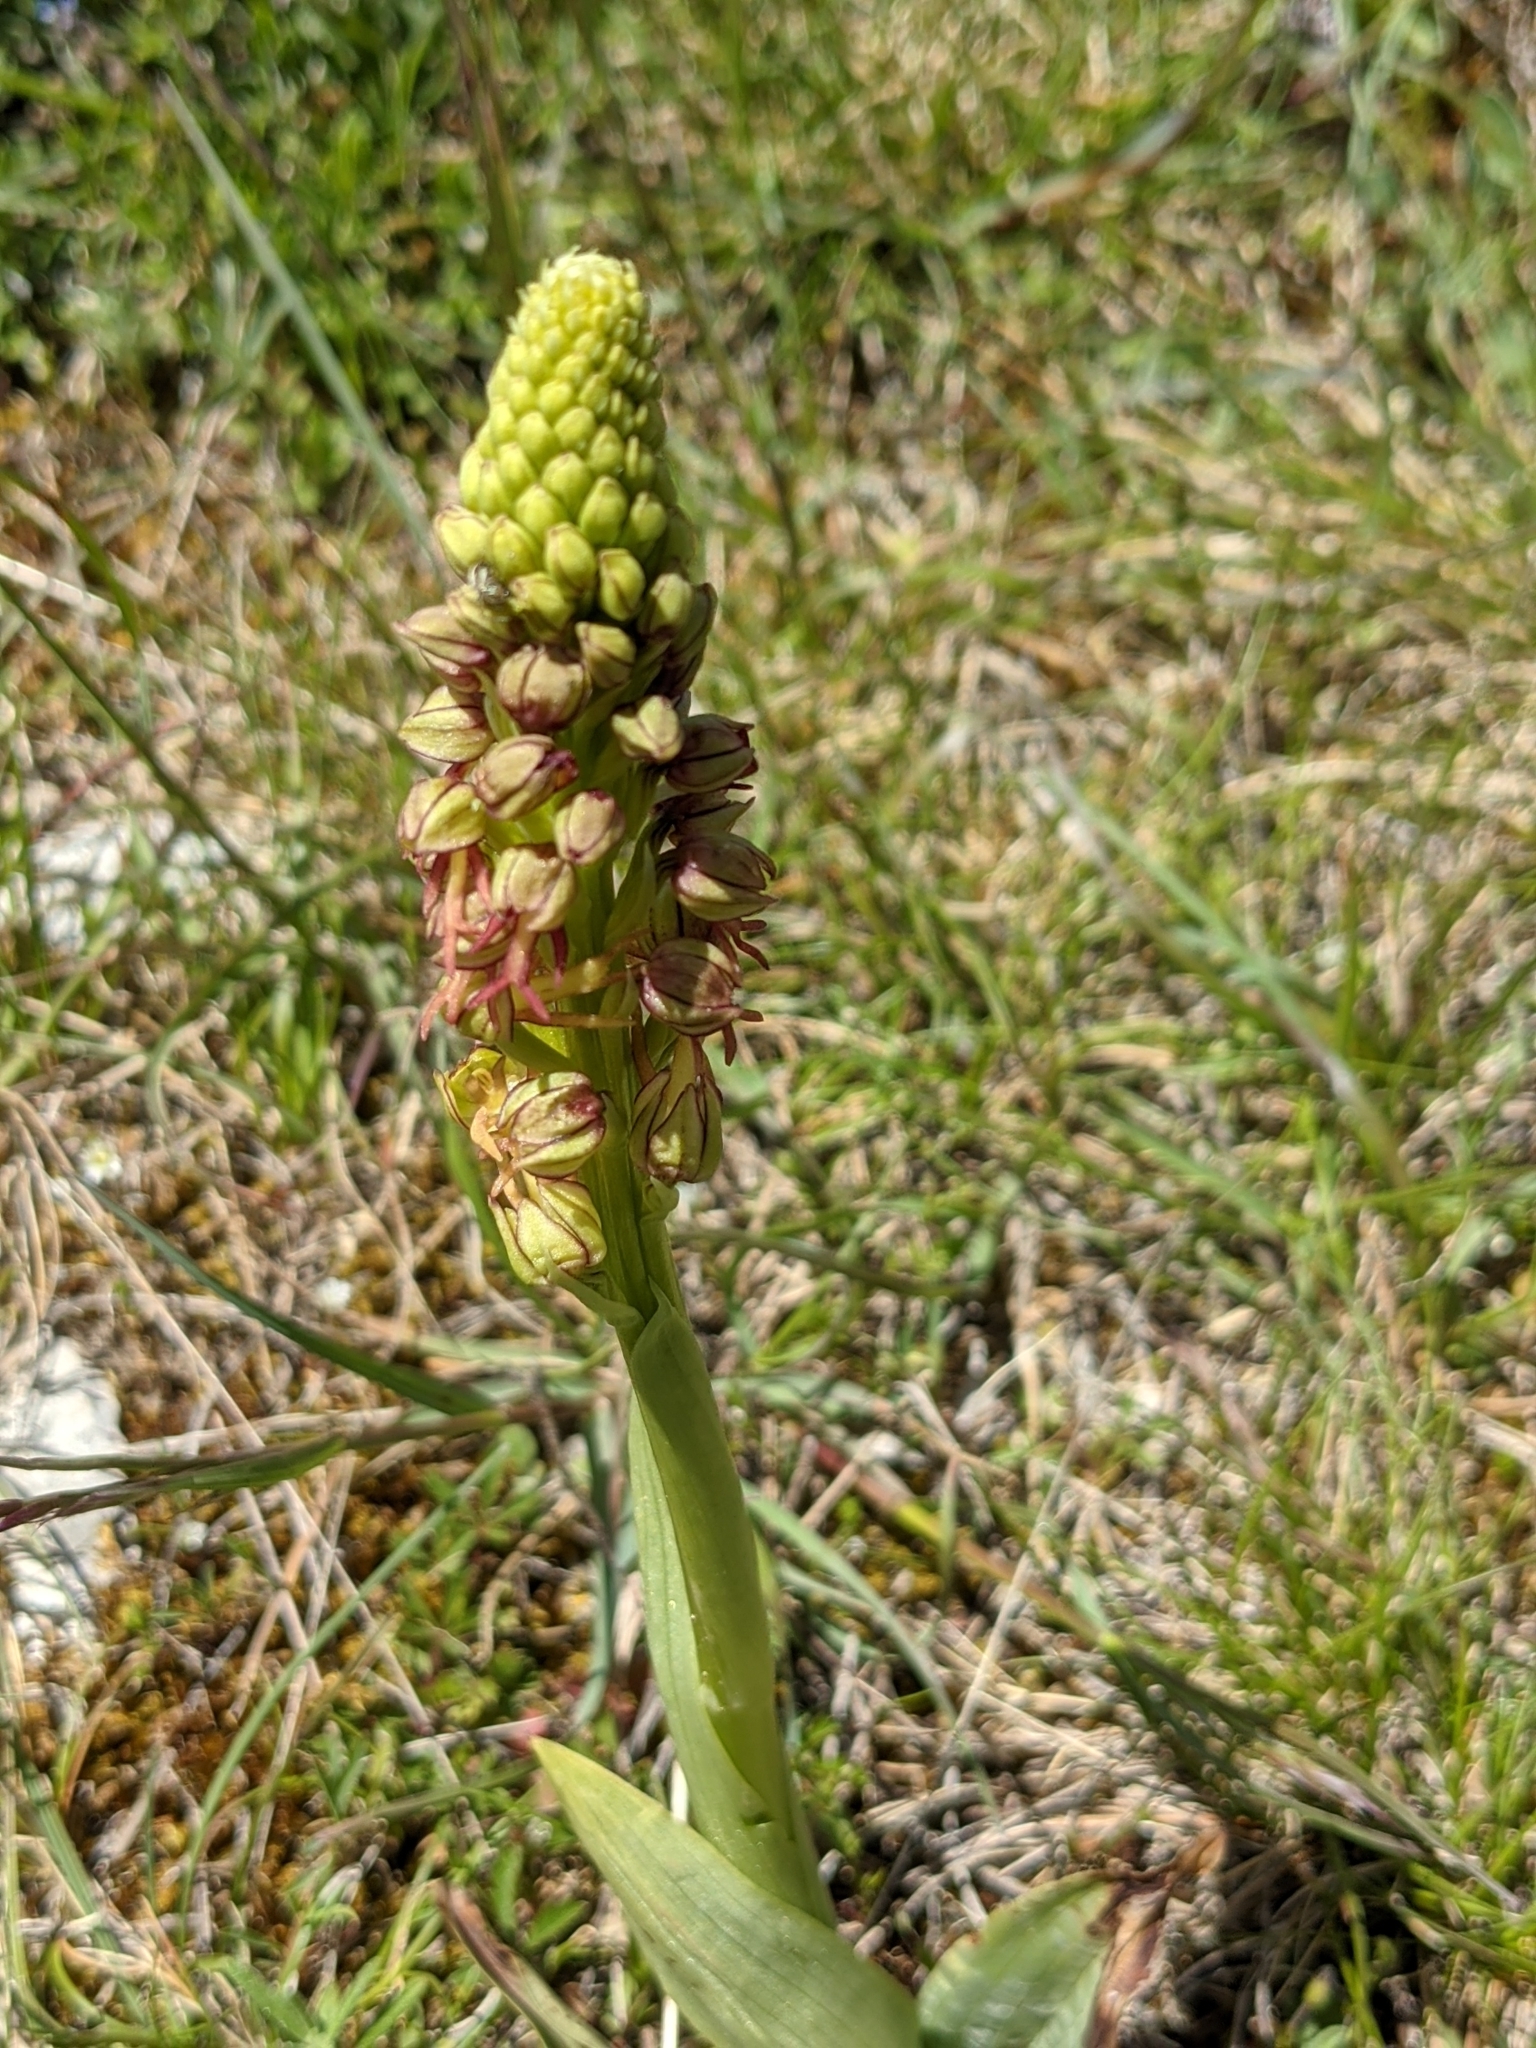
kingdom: Plantae
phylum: Tracheophyta
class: Liliopsida
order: Asparagales
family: Orchidaceae
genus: Orchis
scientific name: Orchis anthropophora
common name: Man orchid
